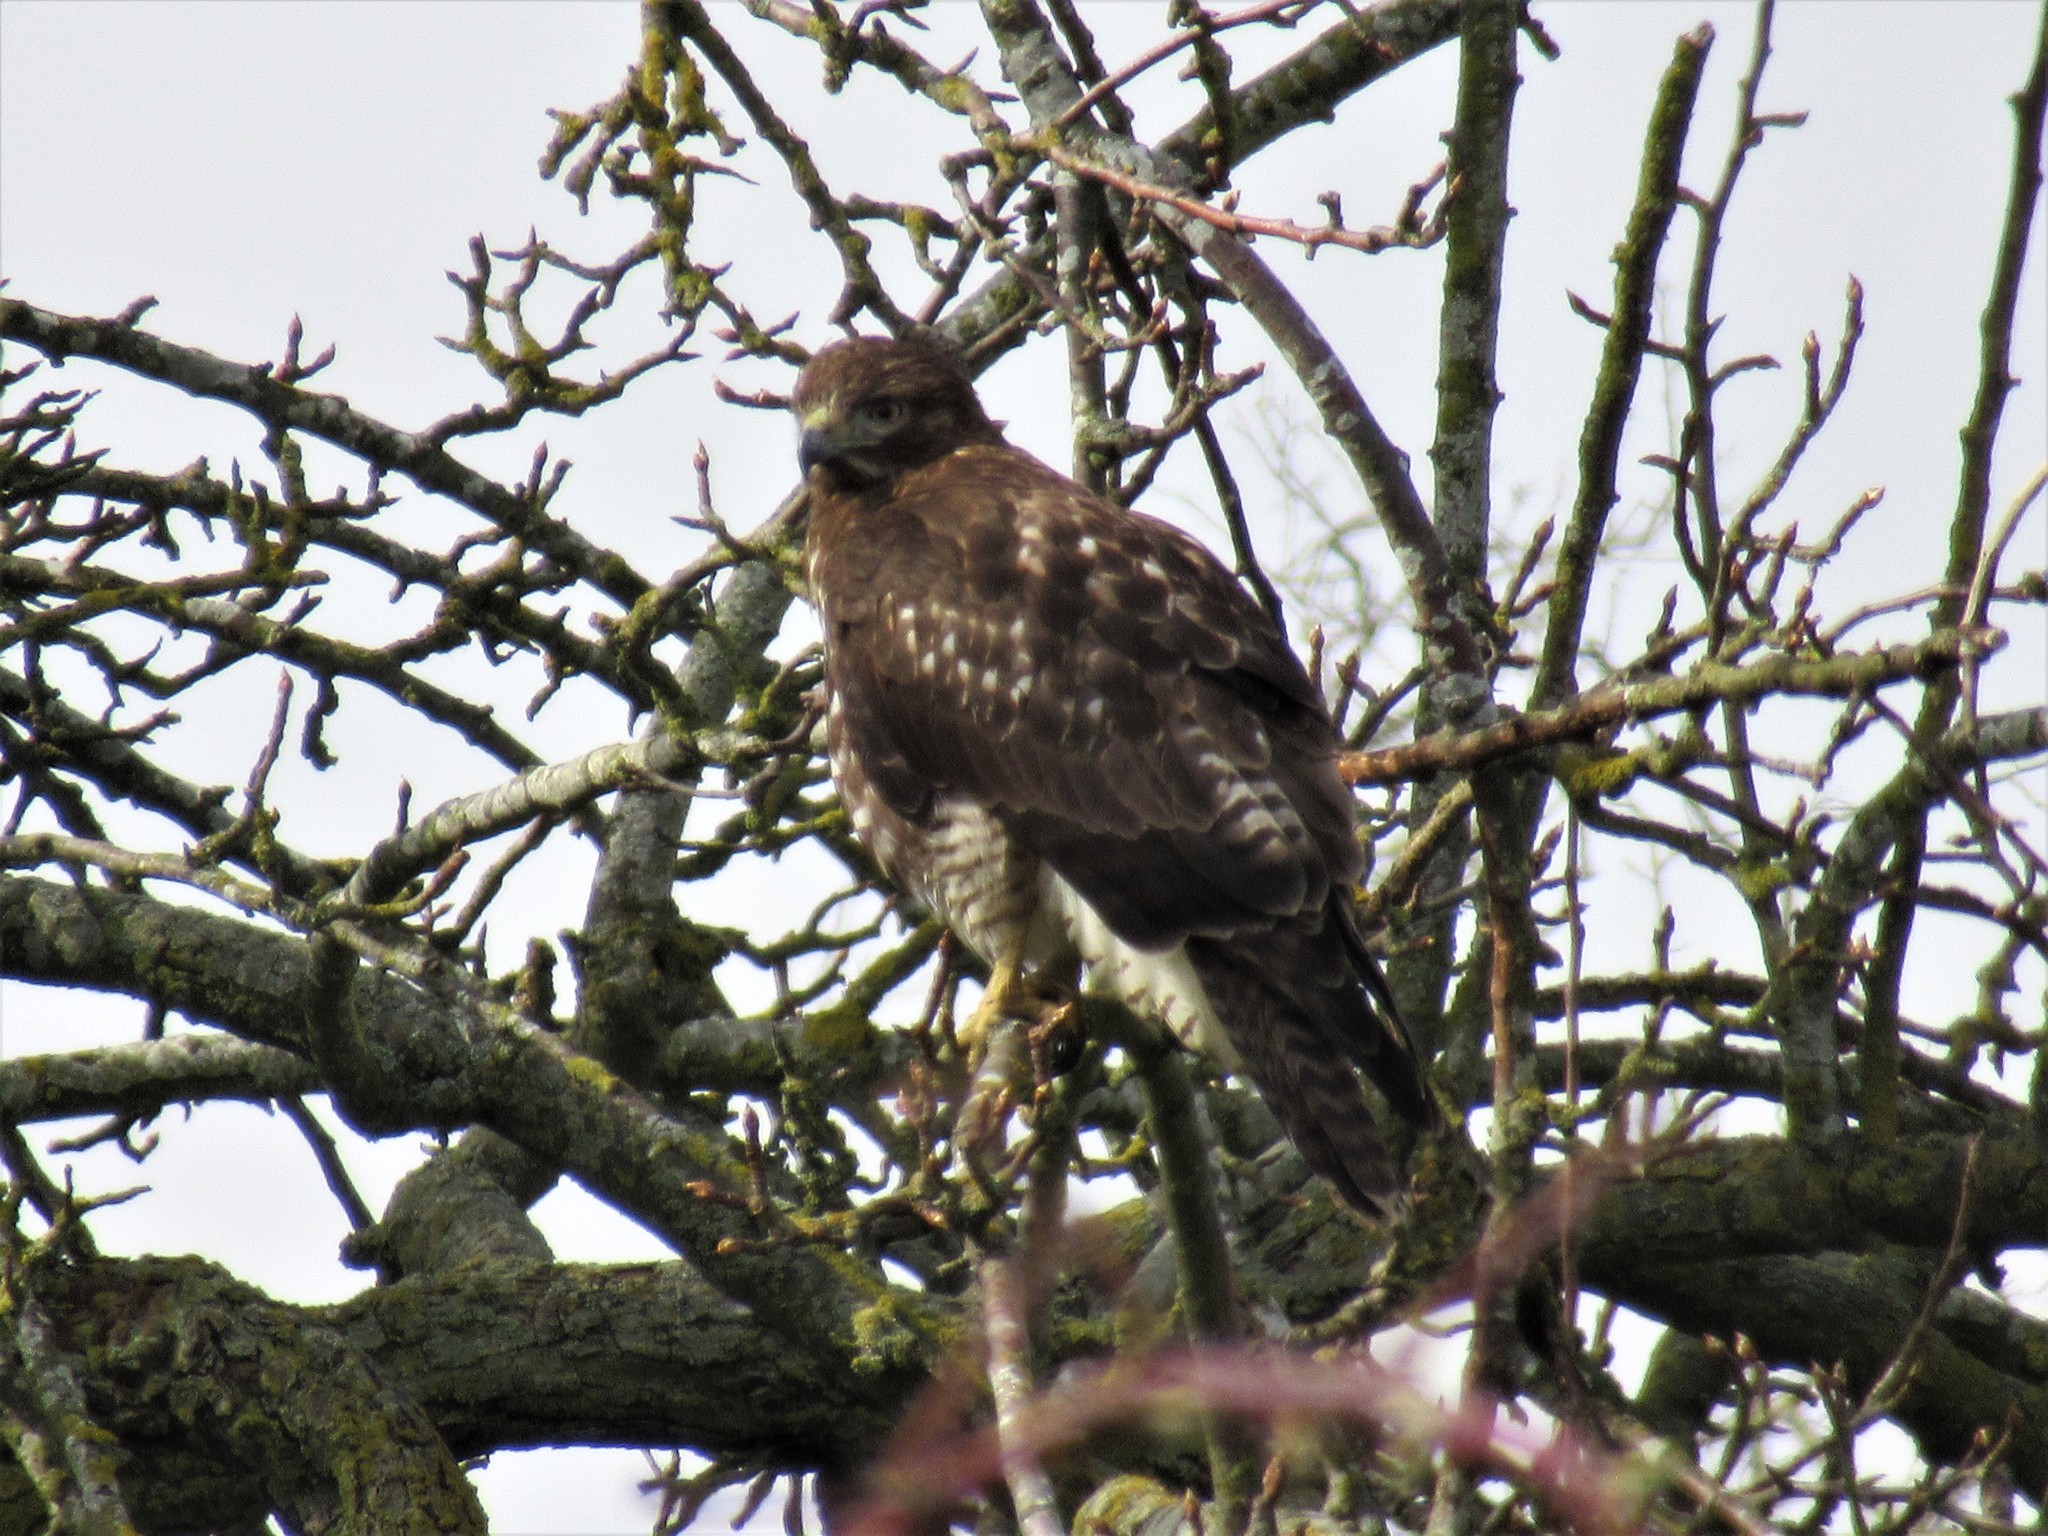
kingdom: Animalia
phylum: Chordata
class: Aves
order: Accipitriformes
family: Accipitridae
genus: Buteo
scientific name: Buteo jamaicensis
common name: Red-tailed hawk
